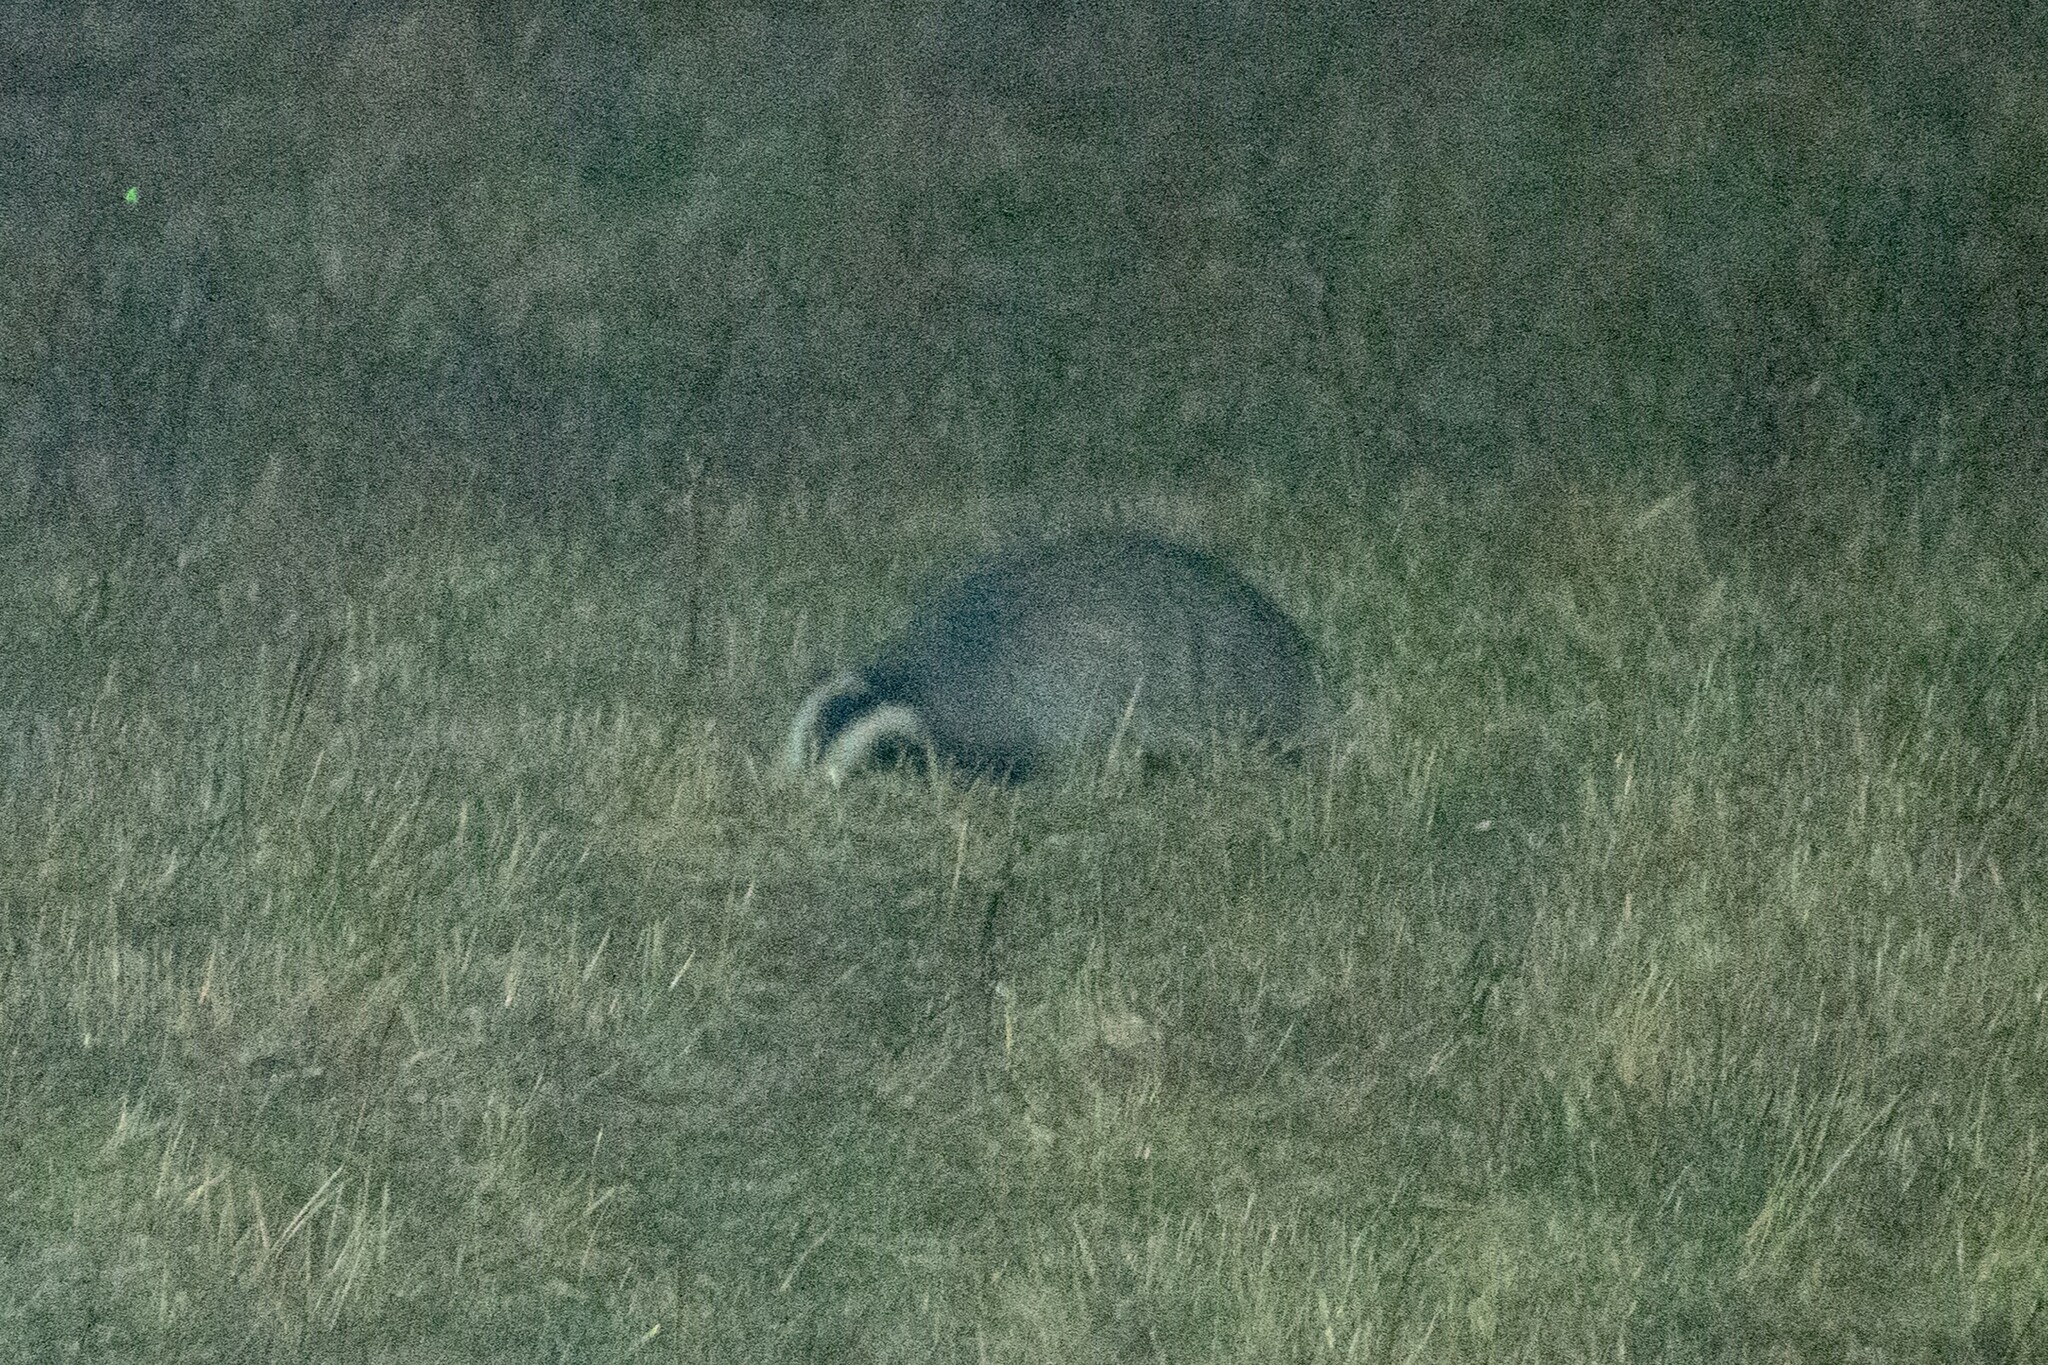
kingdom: Animalia
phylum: Chordata
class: Mammalia
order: Carnivora
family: Mustelidae
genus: Meles
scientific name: Meles meles
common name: Eurasian badger
